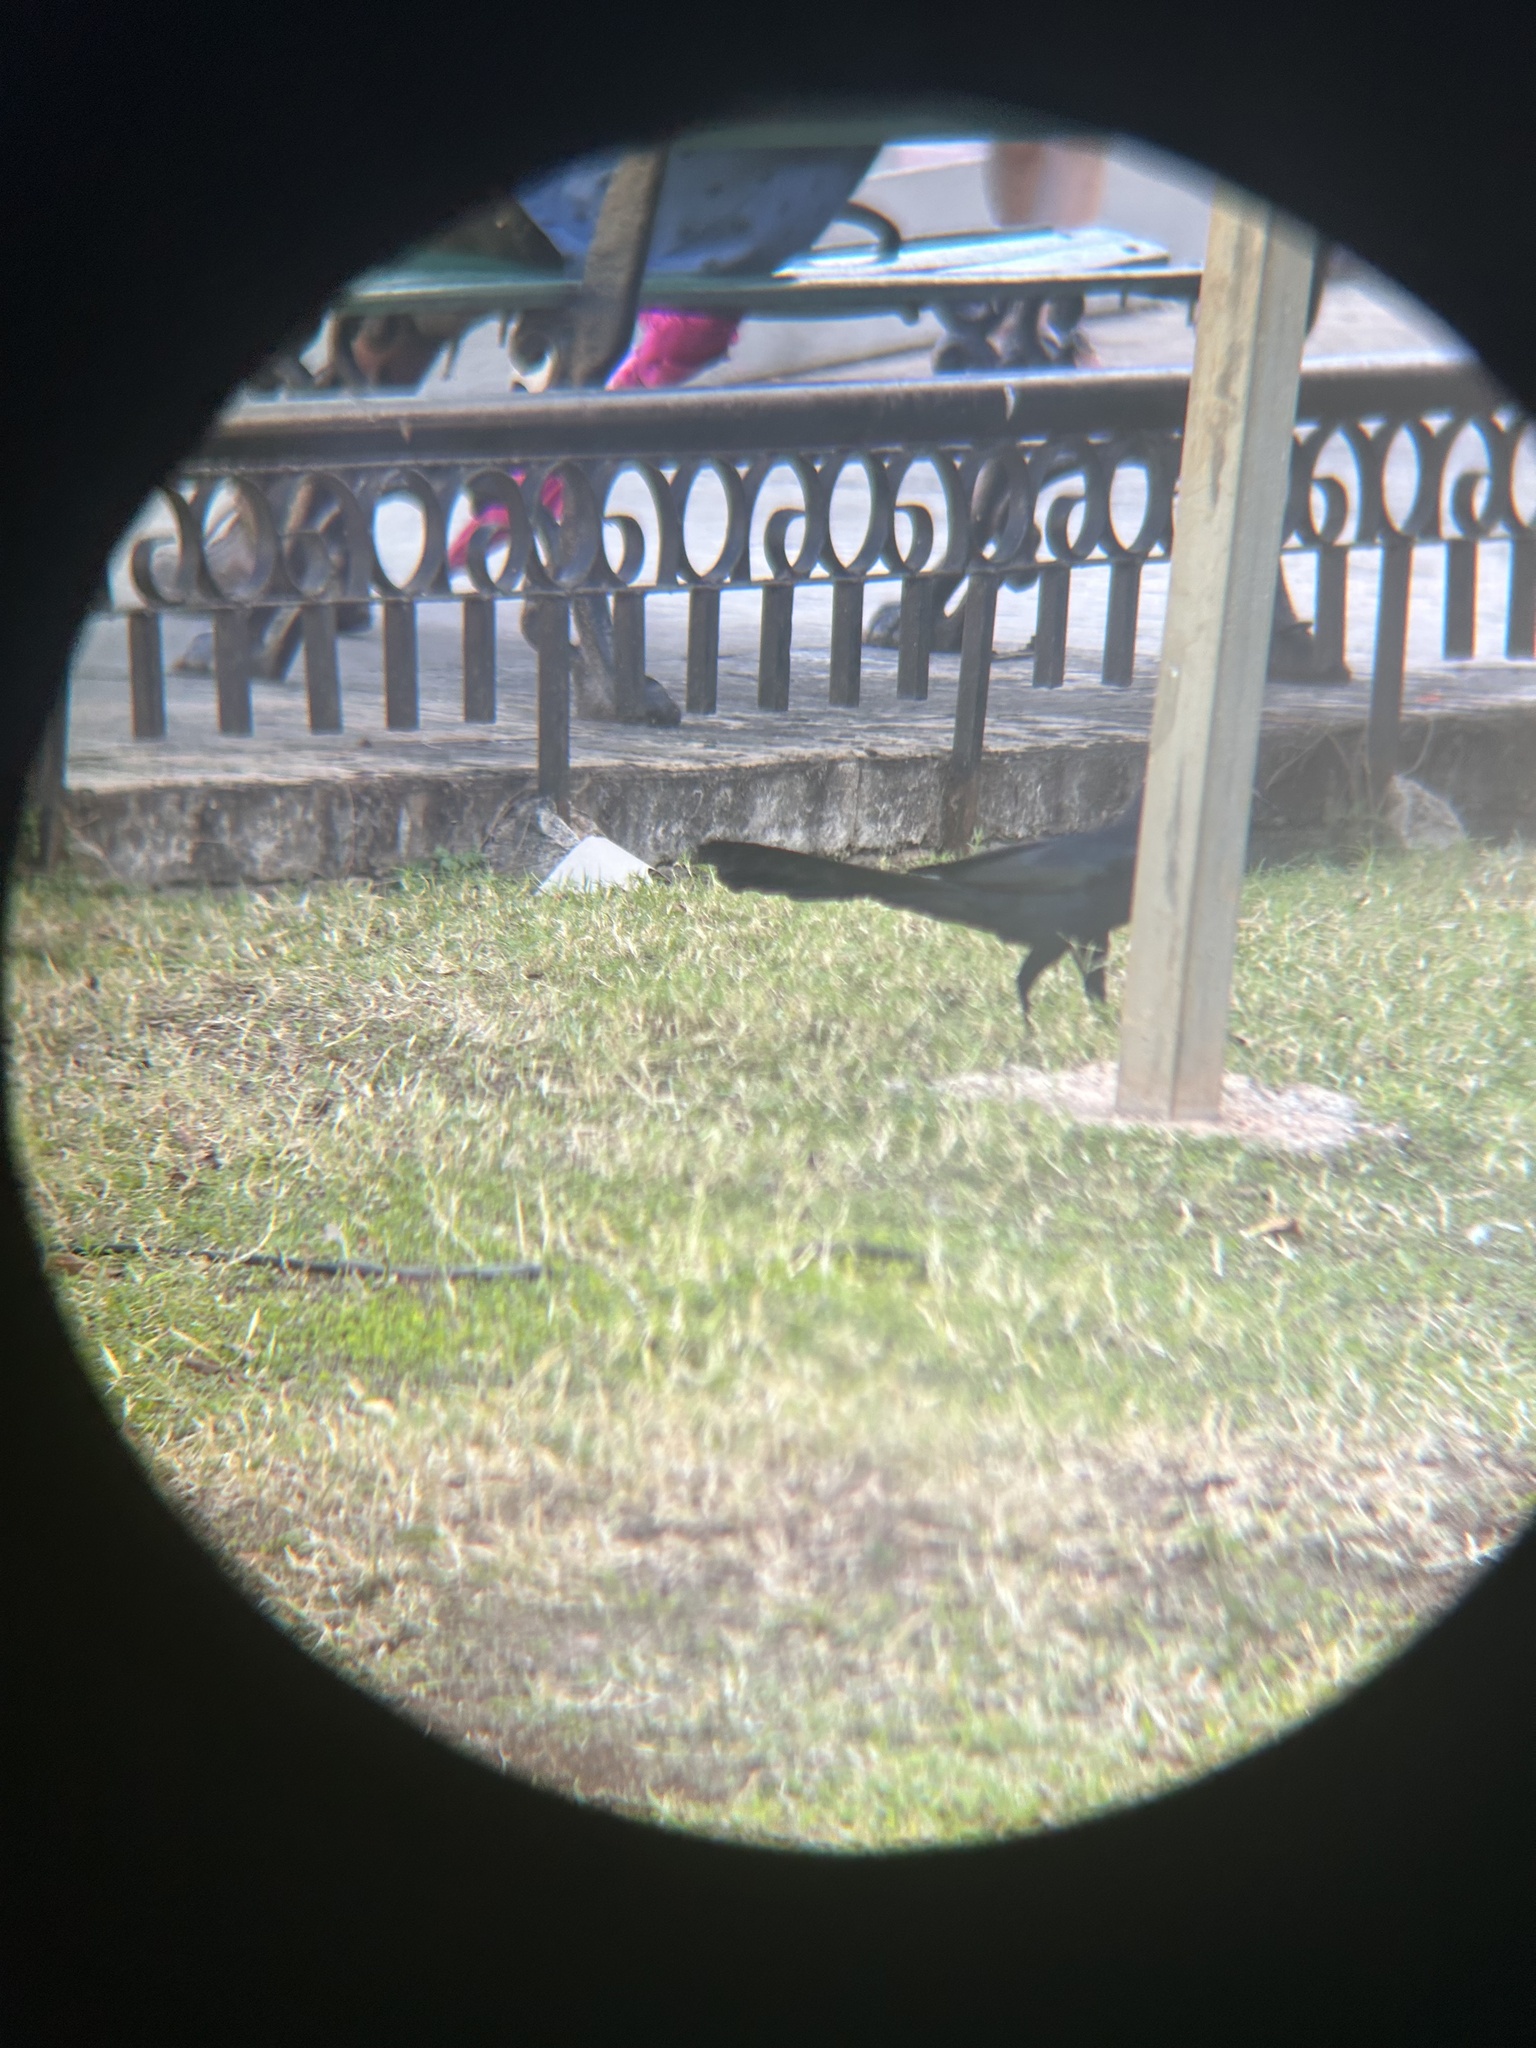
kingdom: Animalia
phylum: Chordata
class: Aves
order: Passeriformes
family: Icteridae
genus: Quiscalus
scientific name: Quiscalus mexicanus
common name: Great-tailed grackle
